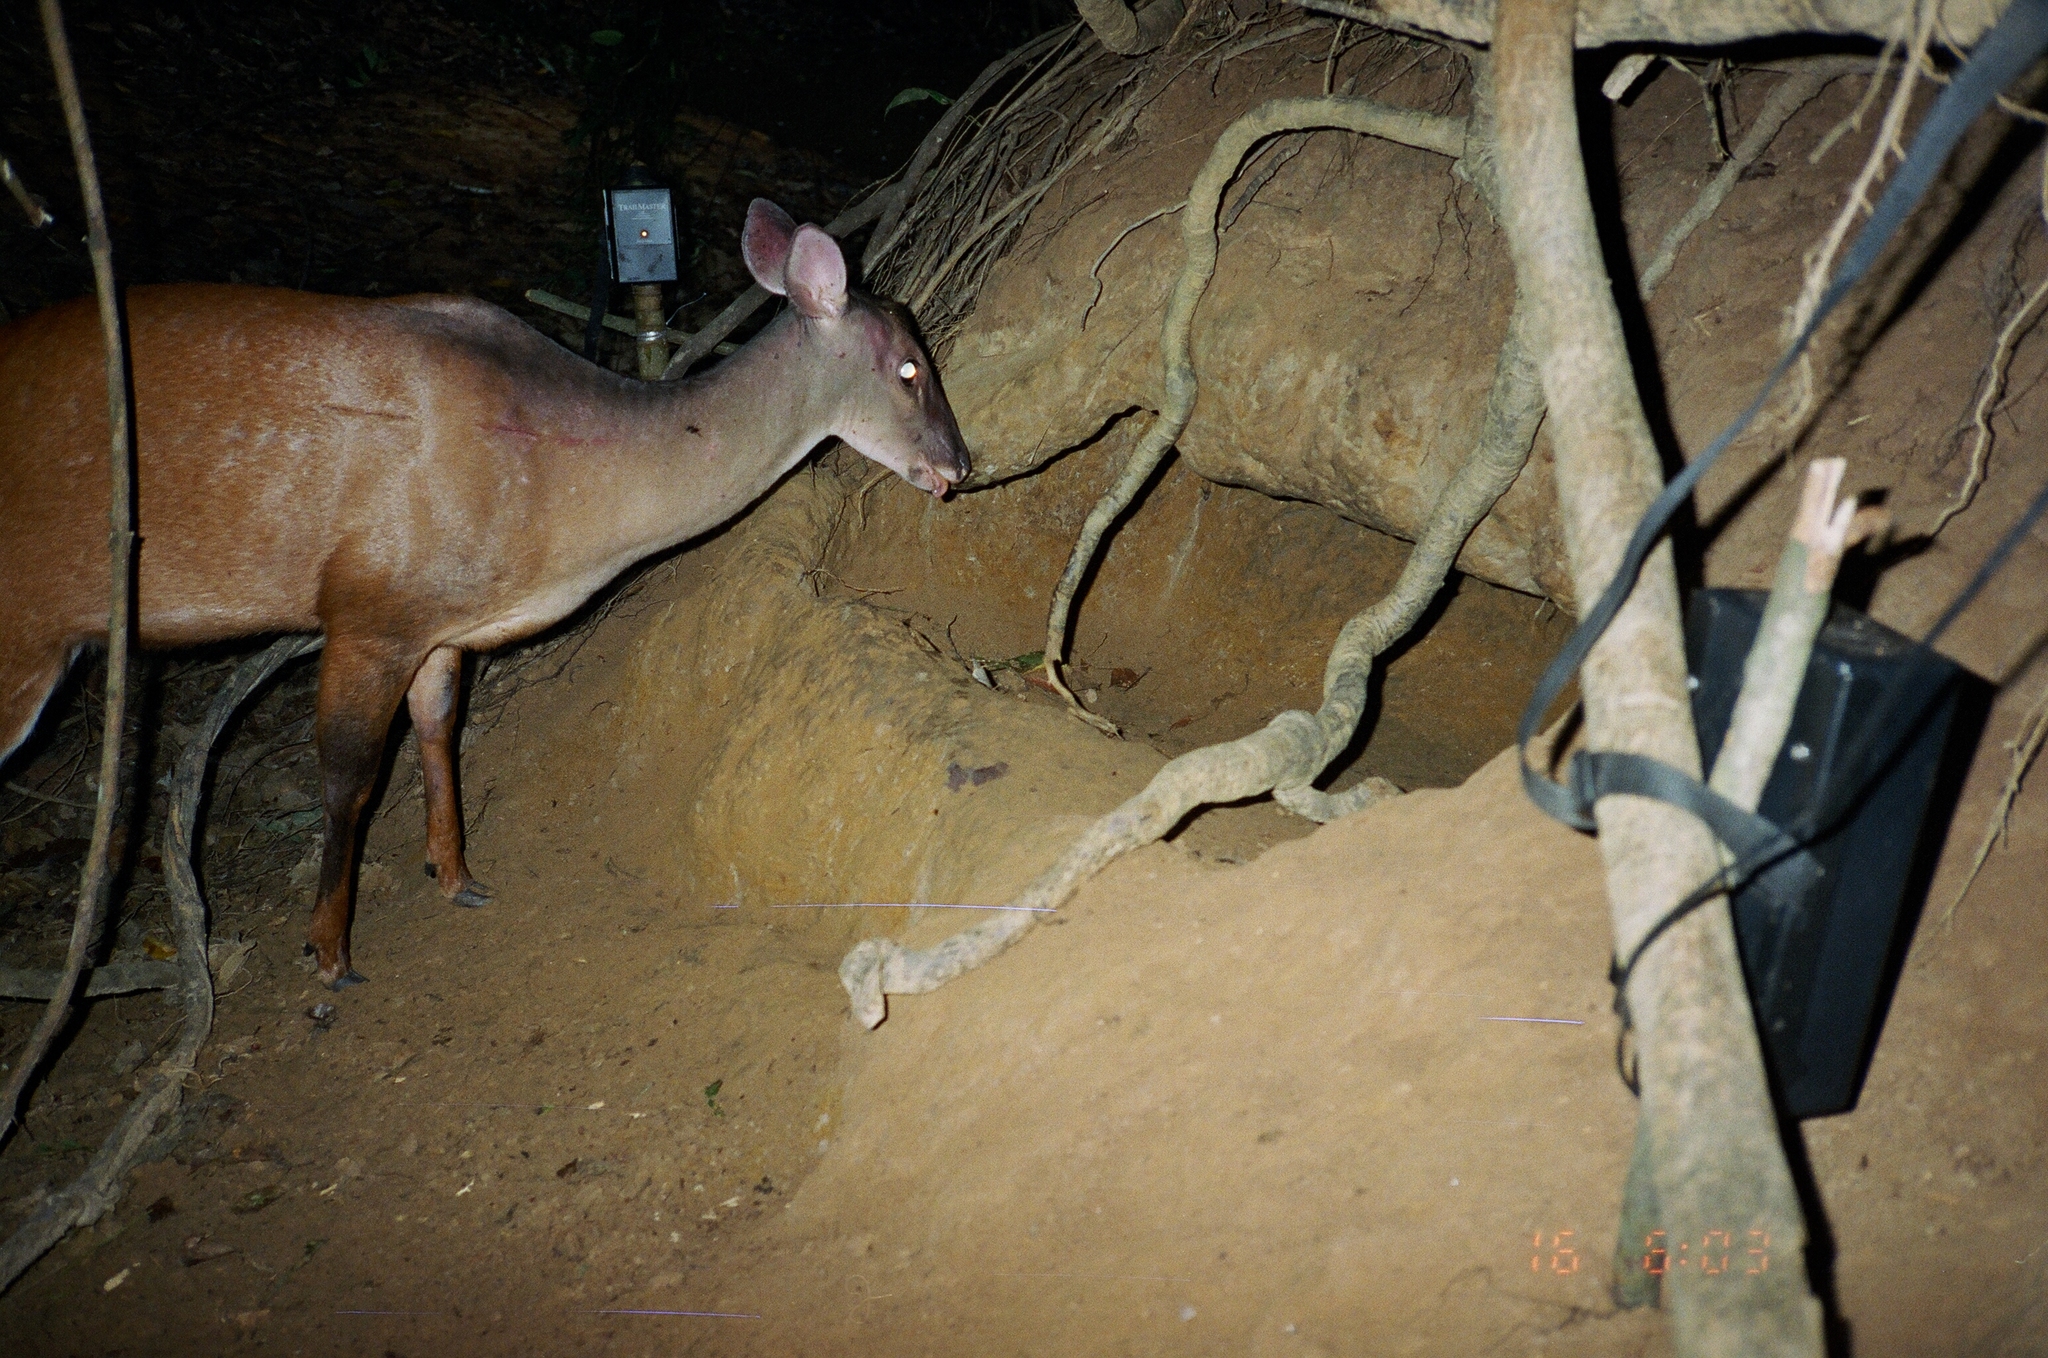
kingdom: Animalia
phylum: Chordata
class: Mammalia
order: Artiodactyla
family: Cervidae
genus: Mazama
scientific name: Mazama americana
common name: Red brocket
